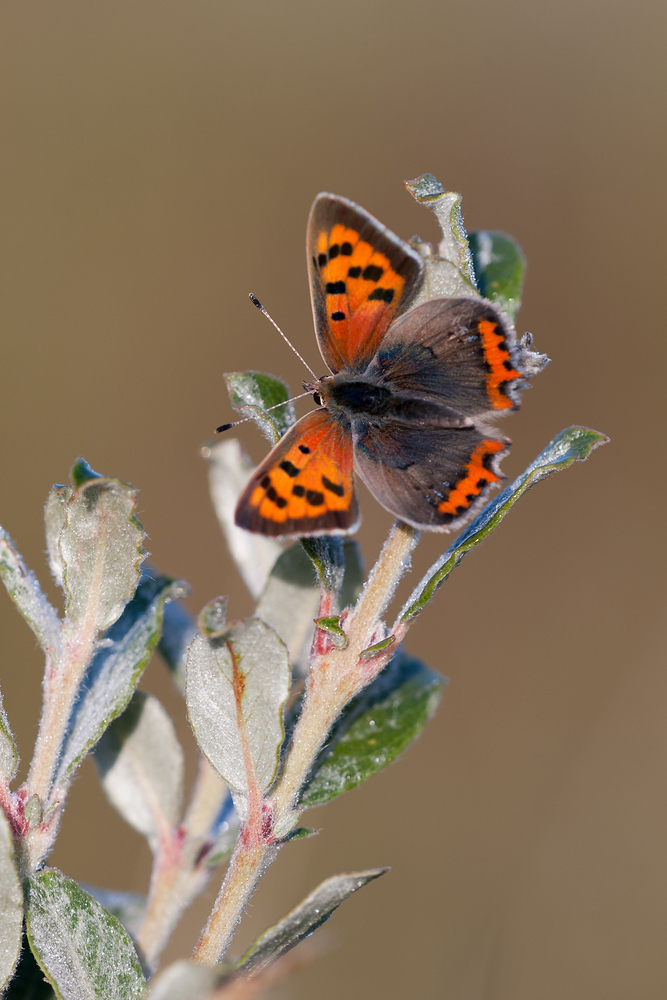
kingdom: Animalia
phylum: Arthropoda
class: Insecta
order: Lepidoptera
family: Lycaenidae
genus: Lycaena
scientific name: Lycaena phlaeas
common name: Small copper
